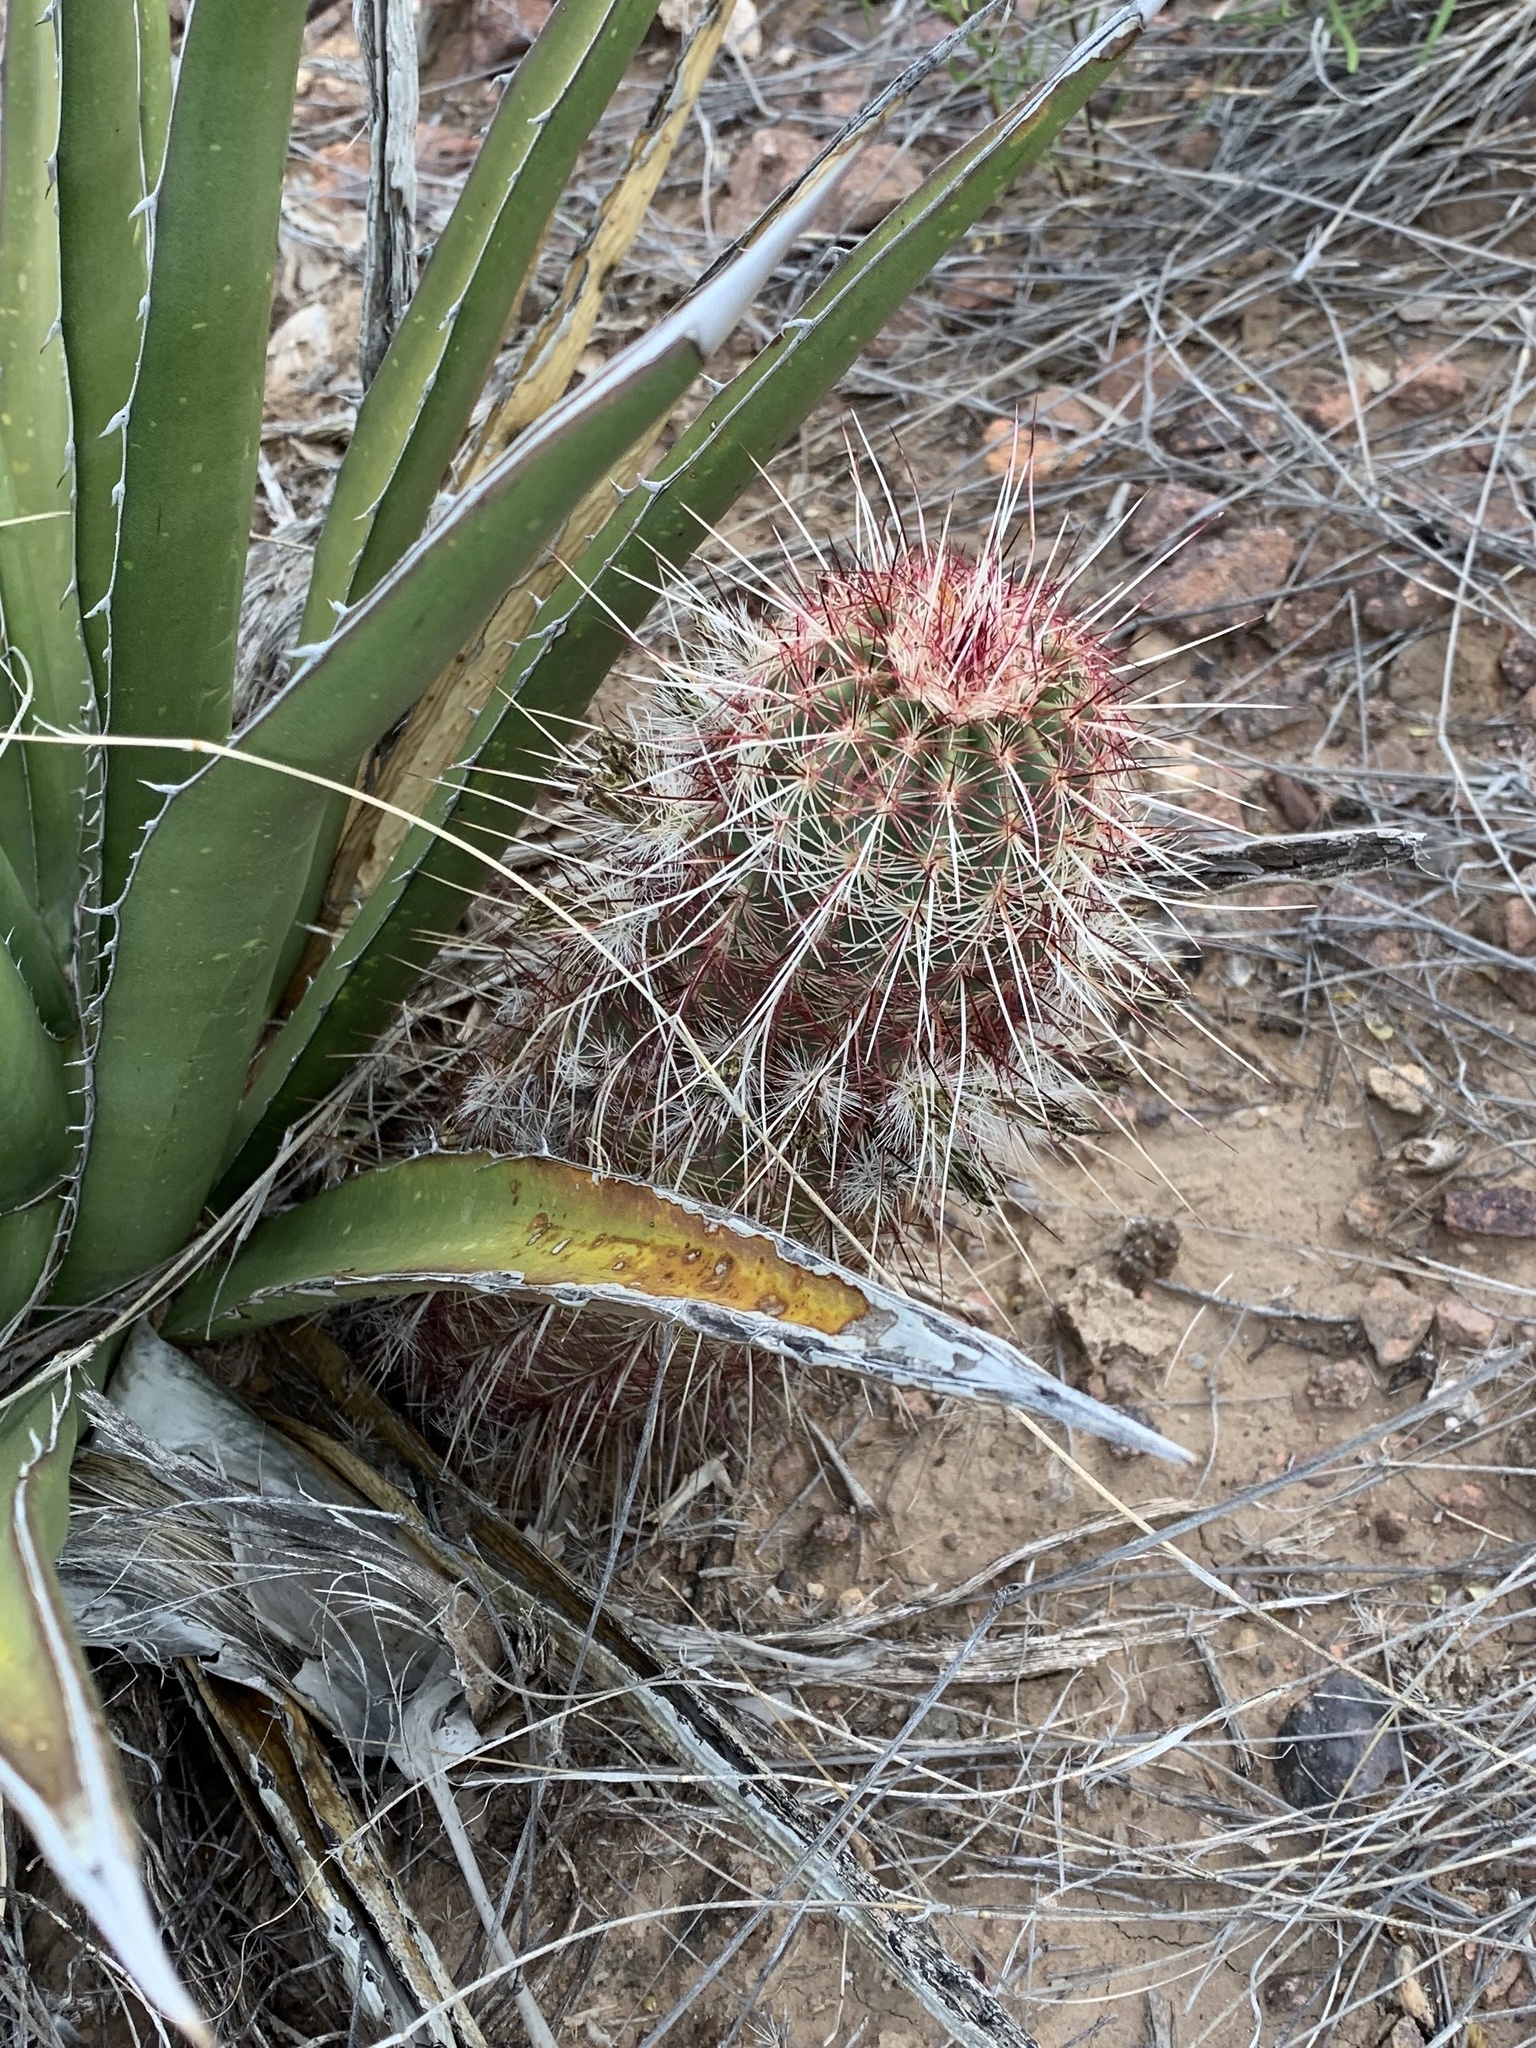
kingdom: Plantae
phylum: Tracheophyta
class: Magnoliopsida
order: Caryophyllales
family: Cactaceae
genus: Echinocereus
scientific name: Echinocereus viridiflorus
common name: Nylon hedgehog cactus
